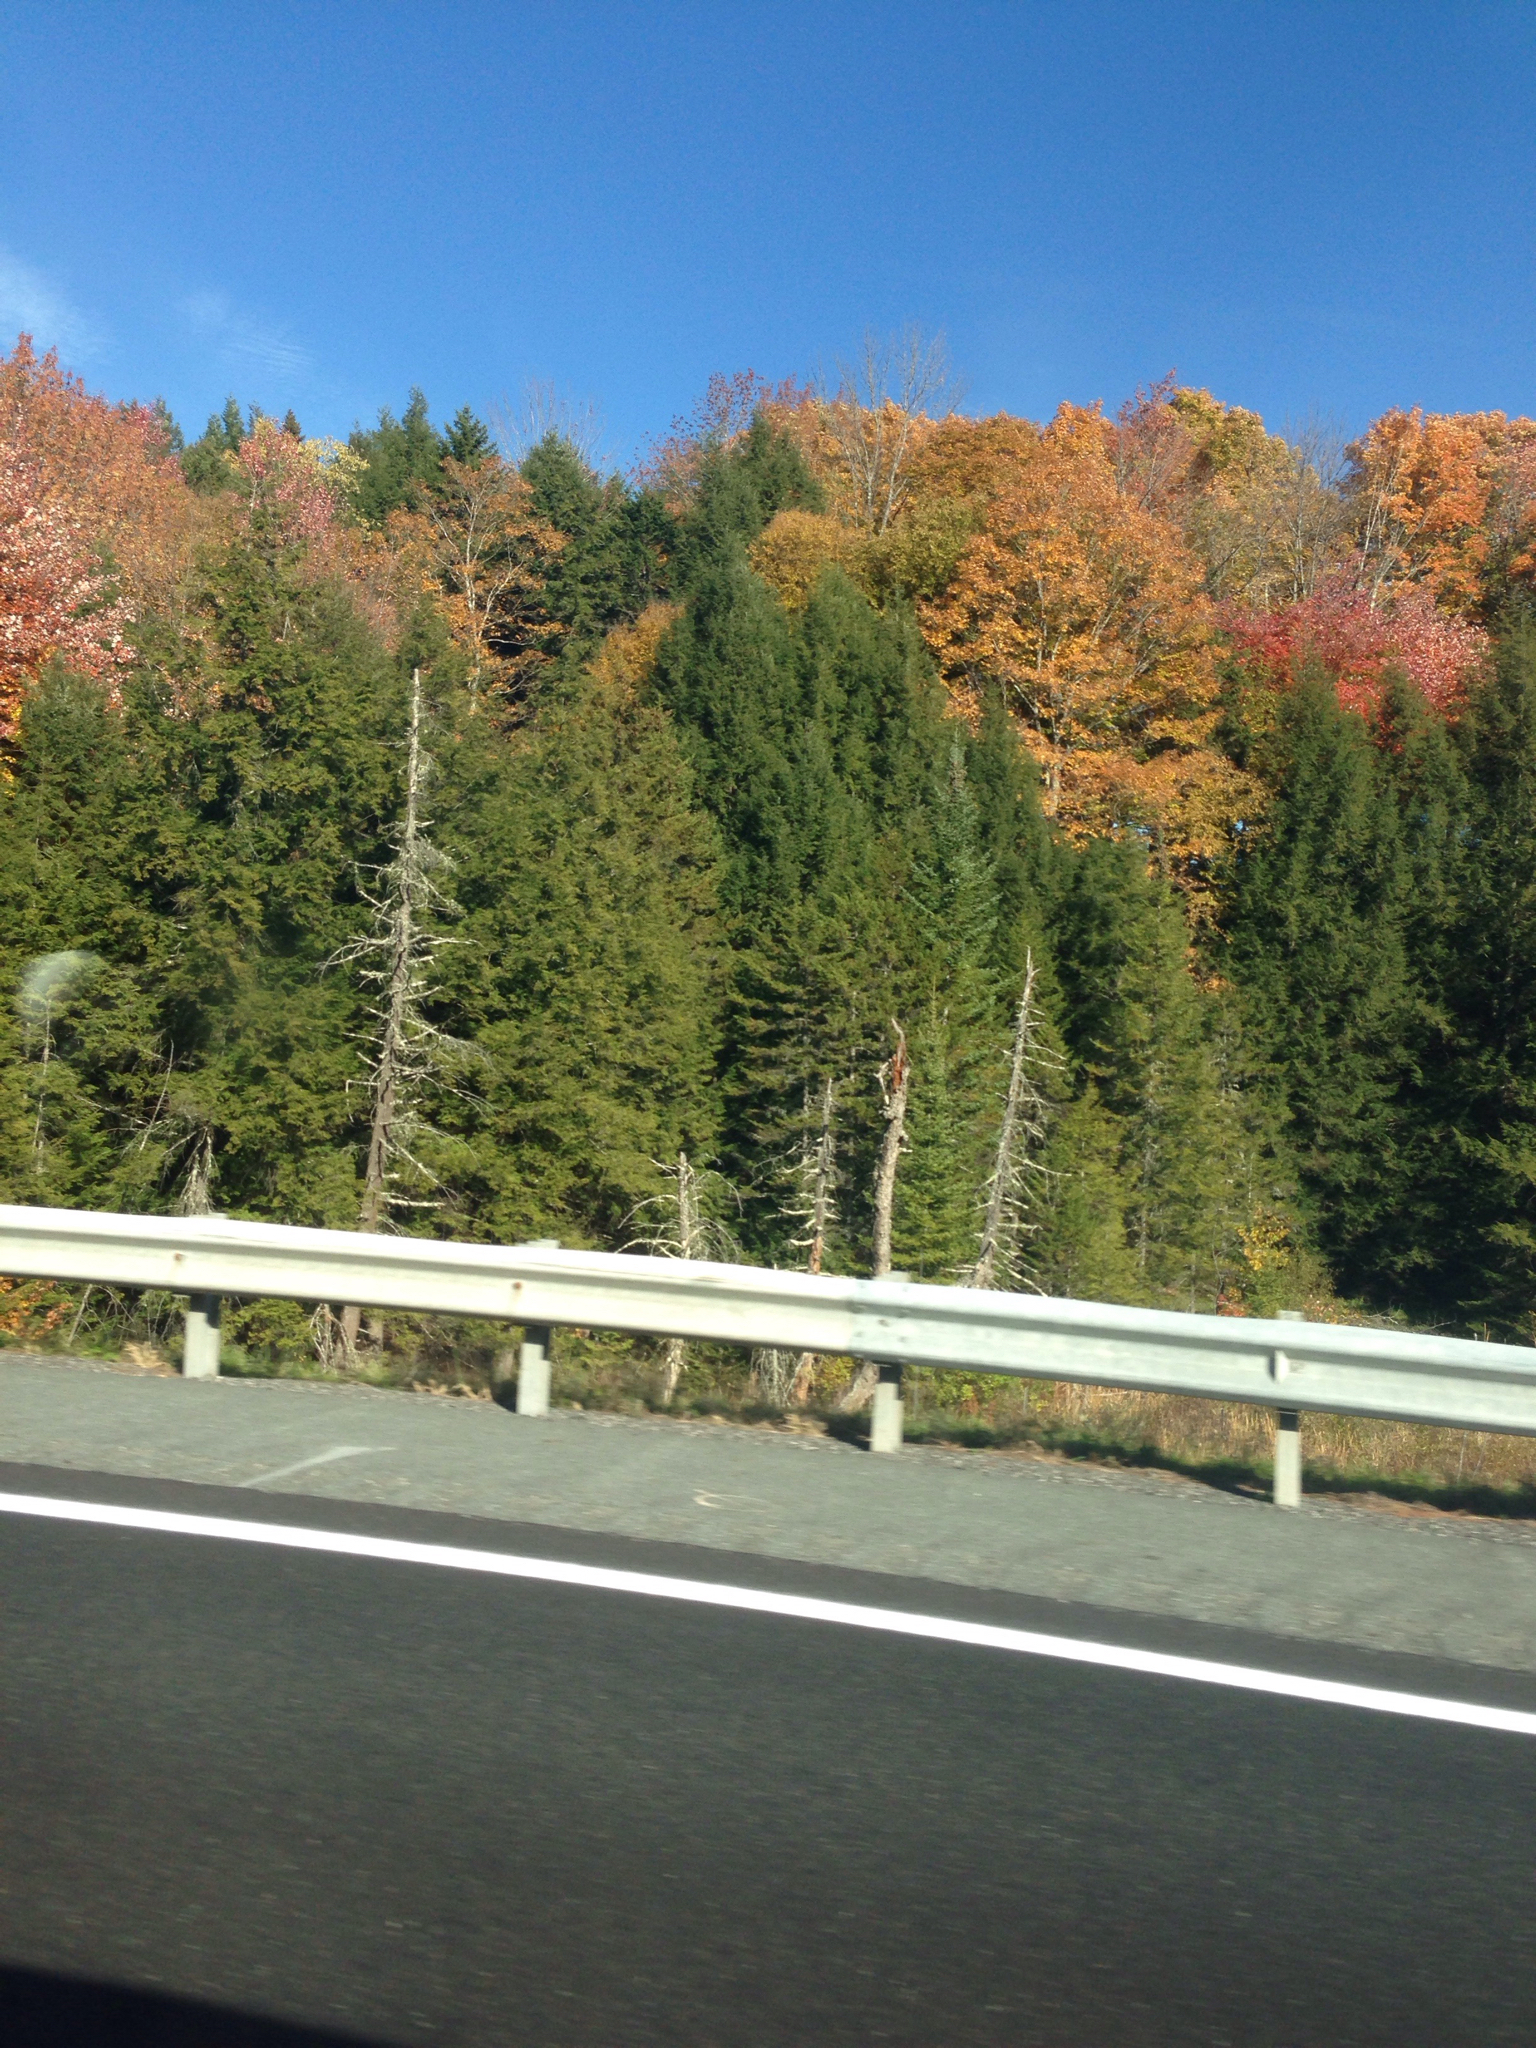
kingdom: Plantae
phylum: Tracheophyta
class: Pinopsida
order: Pinales
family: Pinaceae
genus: Tsuga
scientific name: Tsuga canadensis
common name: Eastern hemlock
